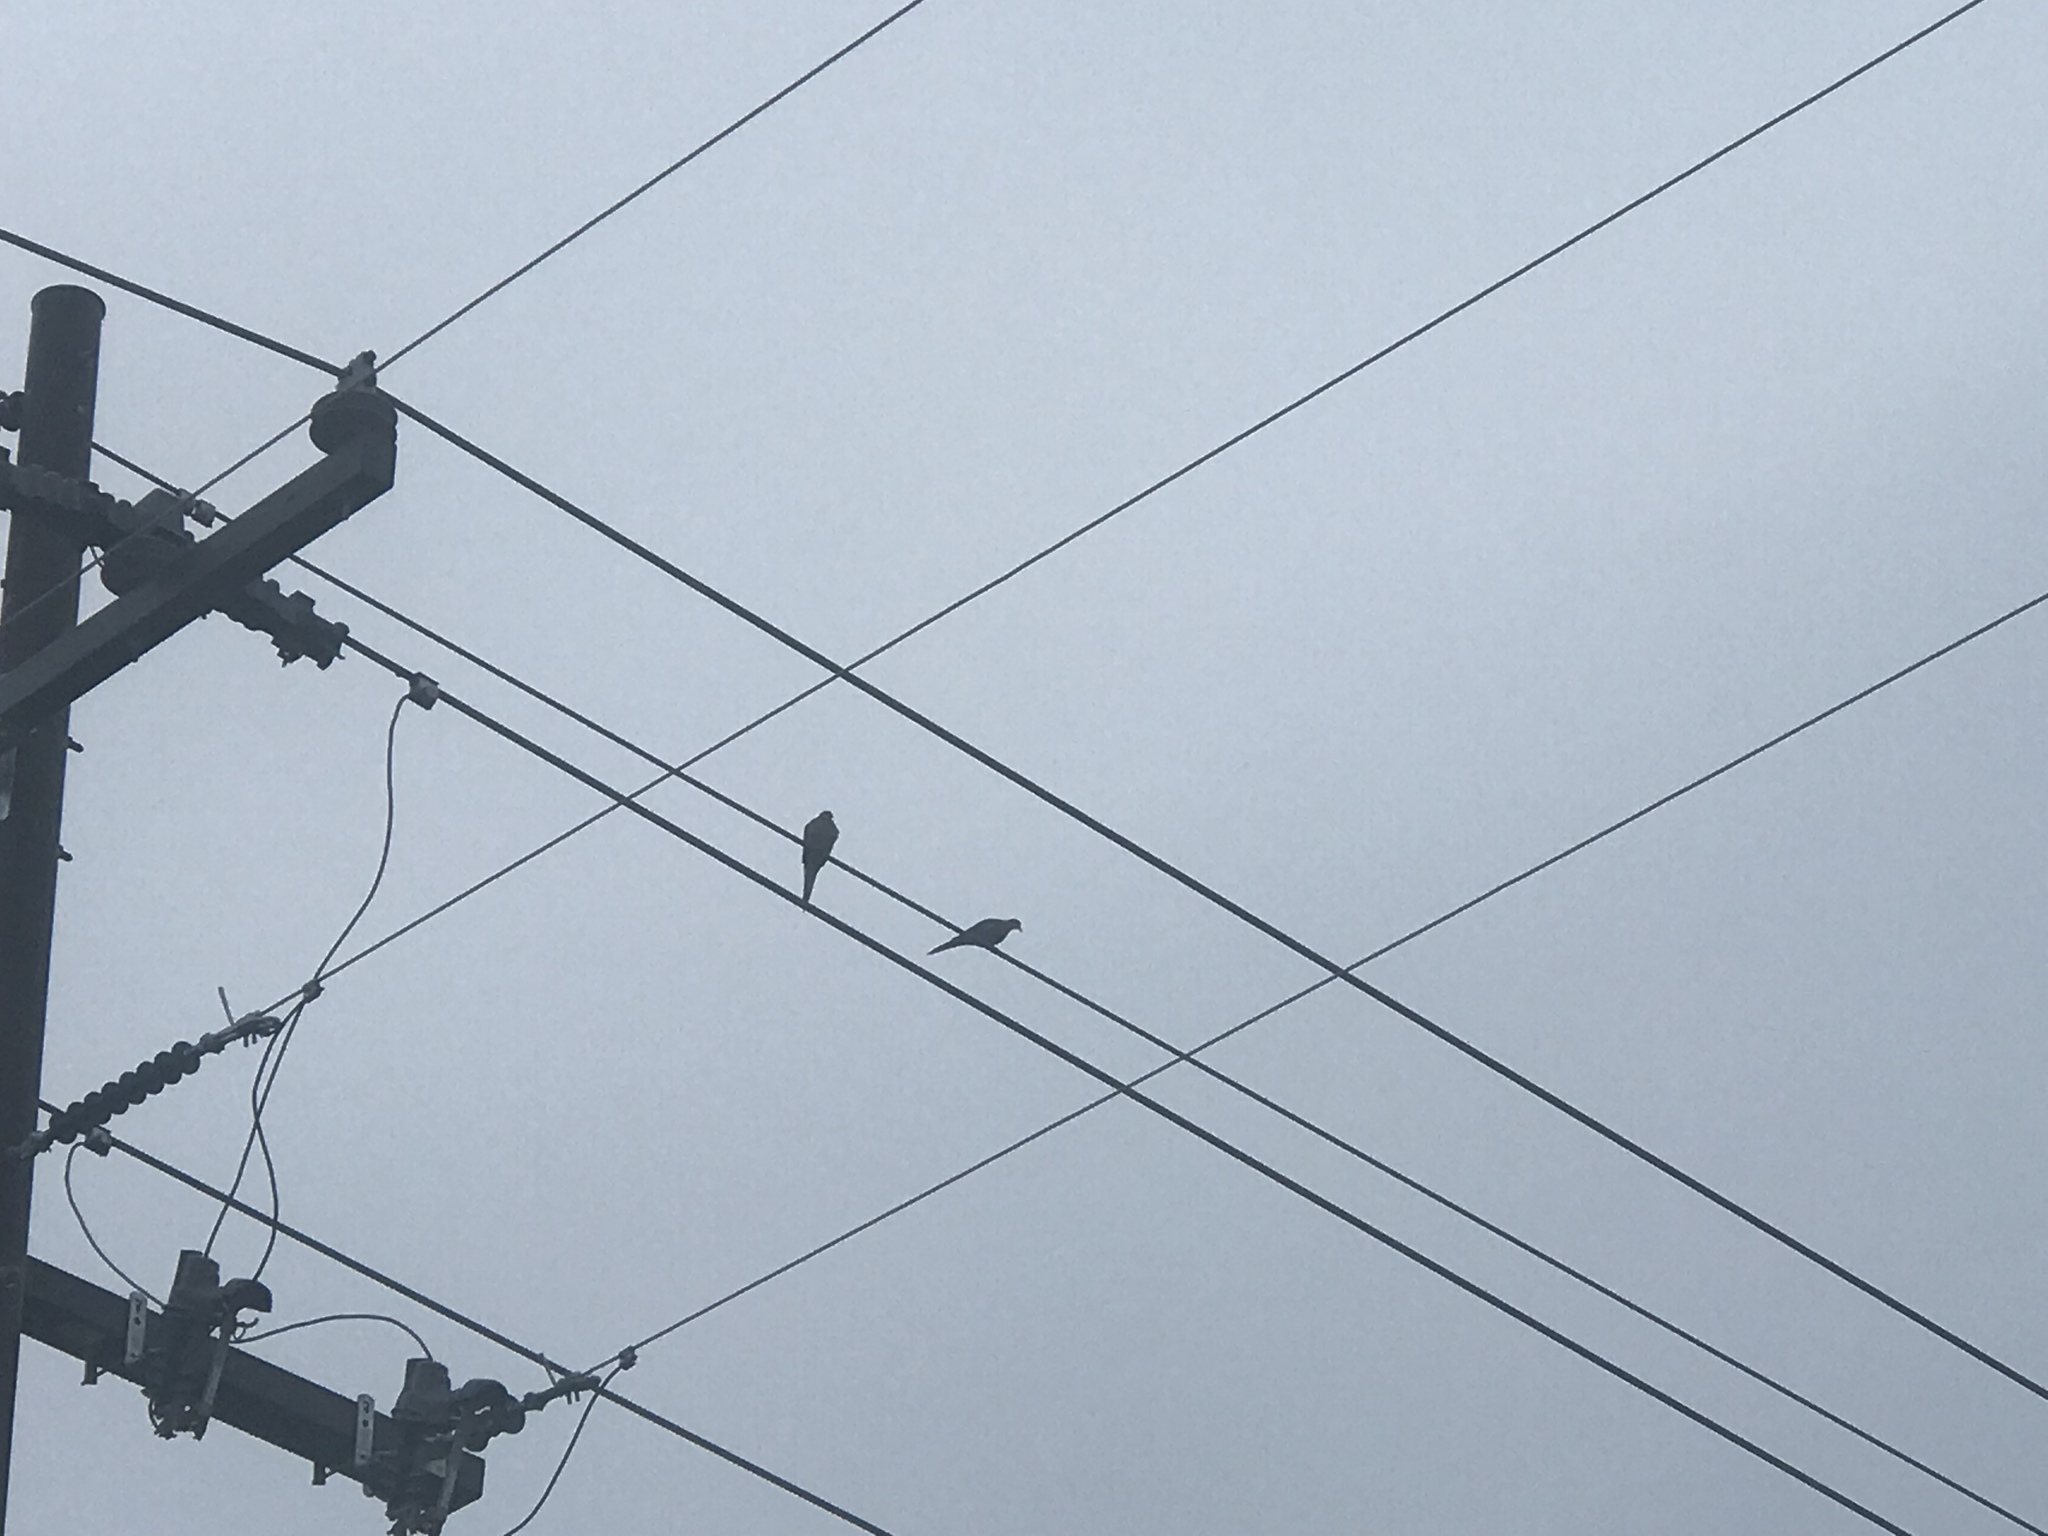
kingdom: Animalia
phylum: Chordata
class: Aves
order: Columbiformes
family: Columbidae
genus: Zenaida
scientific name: Zenaida macroura
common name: Mourning dove
